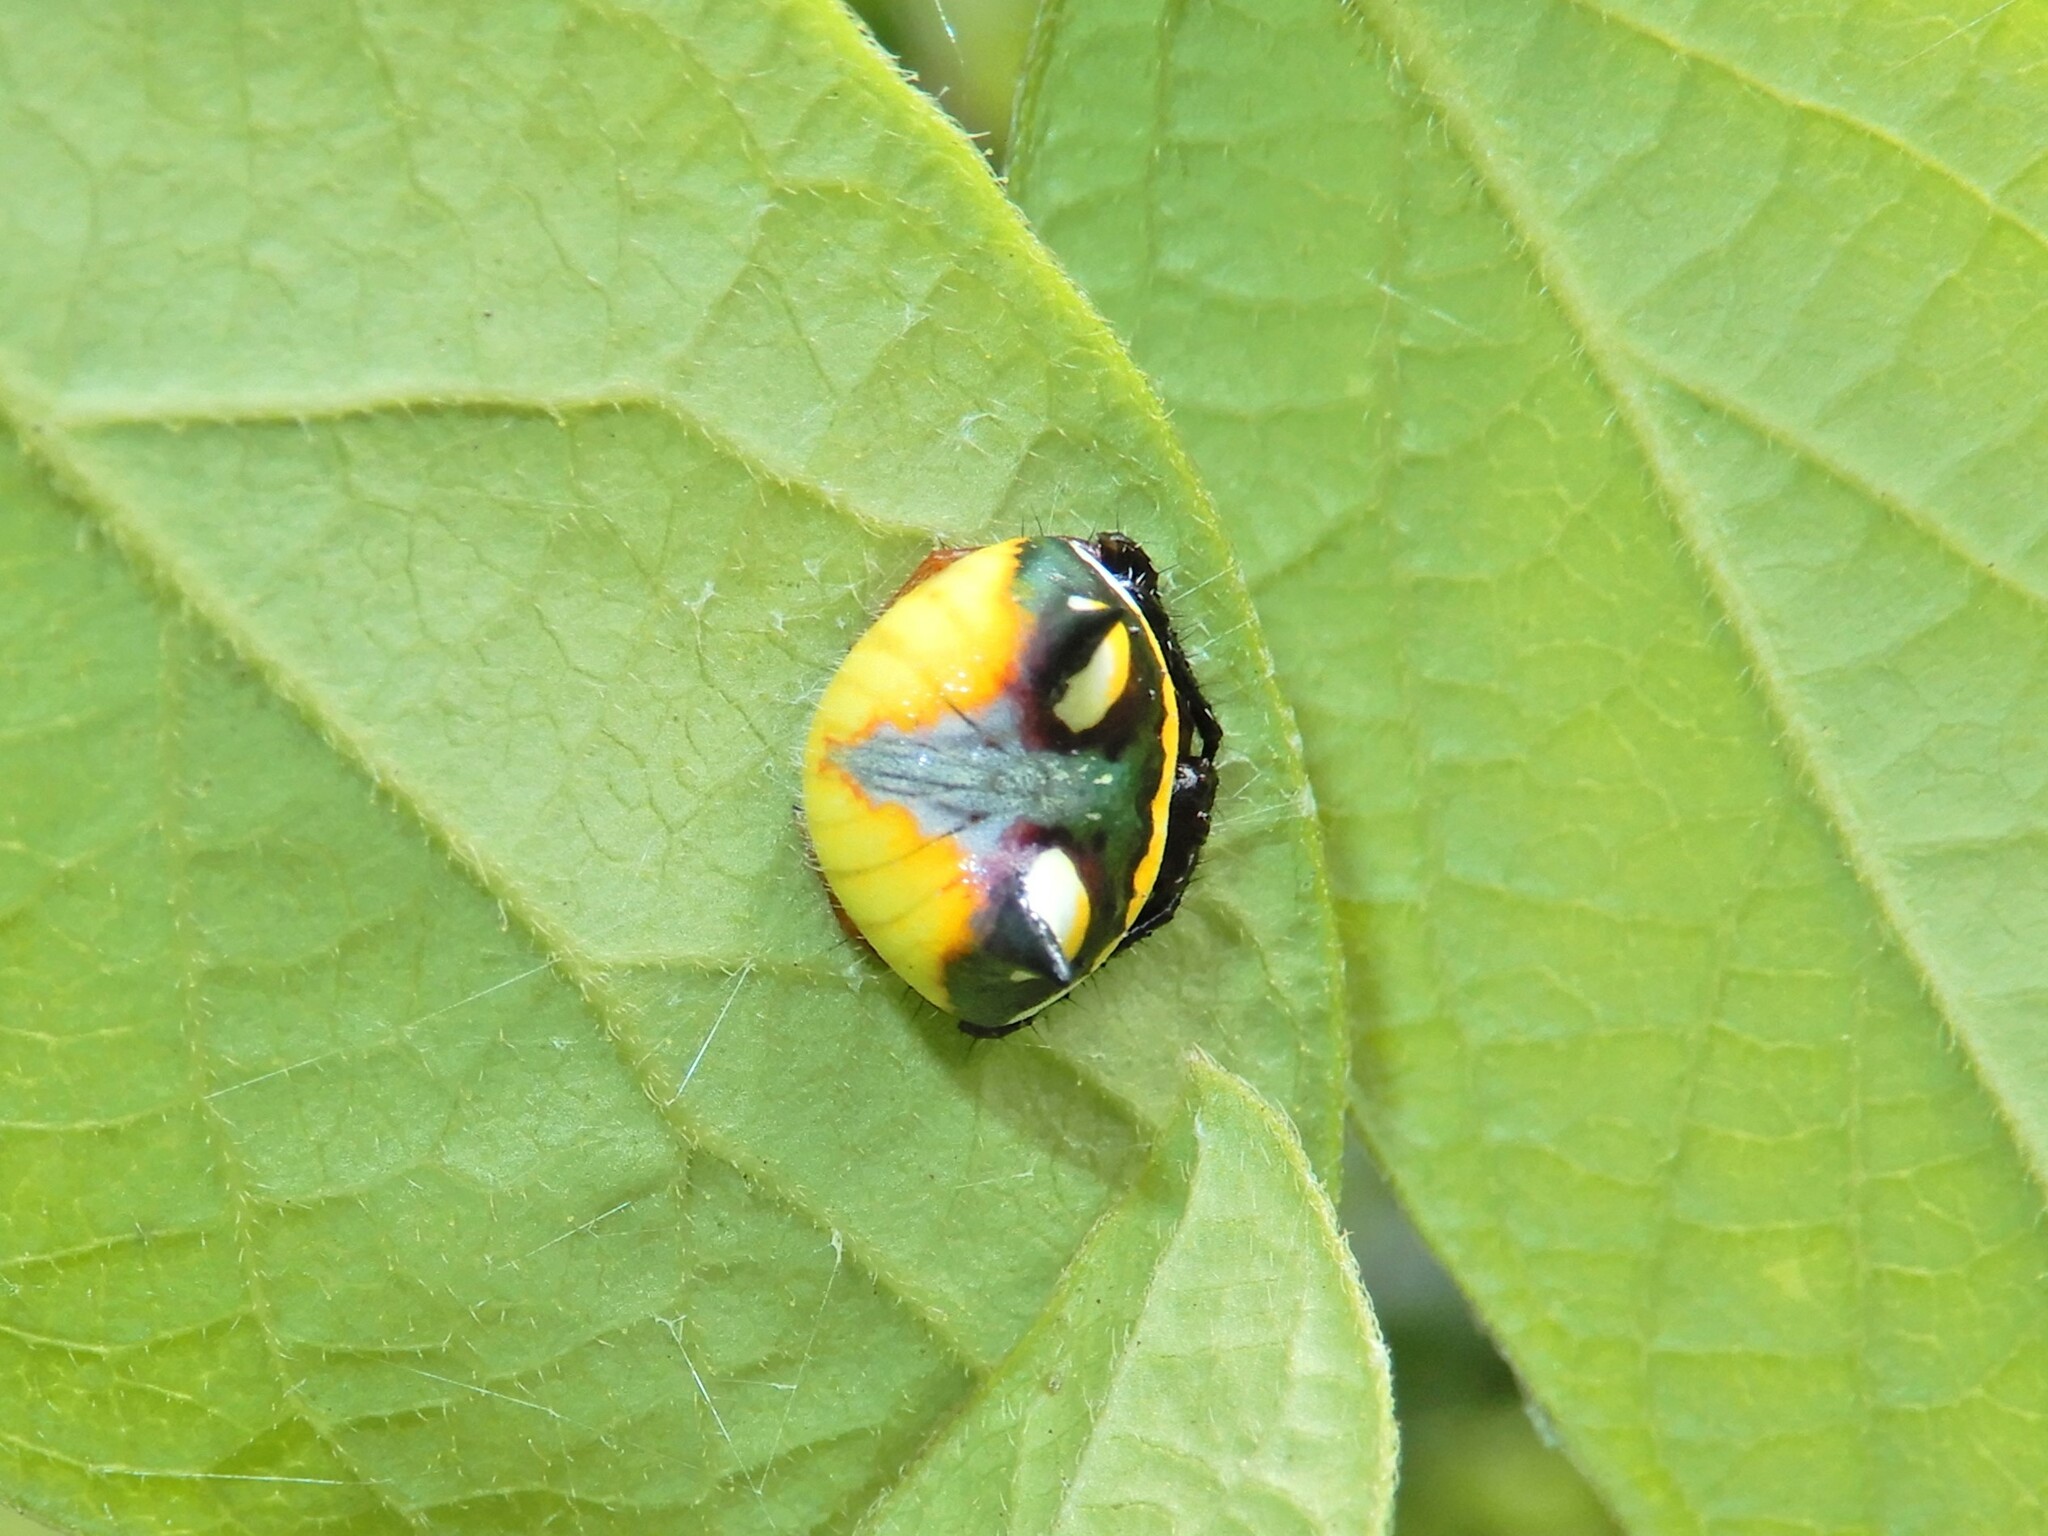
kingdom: Animalia
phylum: Arthropoda
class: Arachnida
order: Araneae
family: Araneidae
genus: Poecilopachys
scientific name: Poecilopachys australasia
